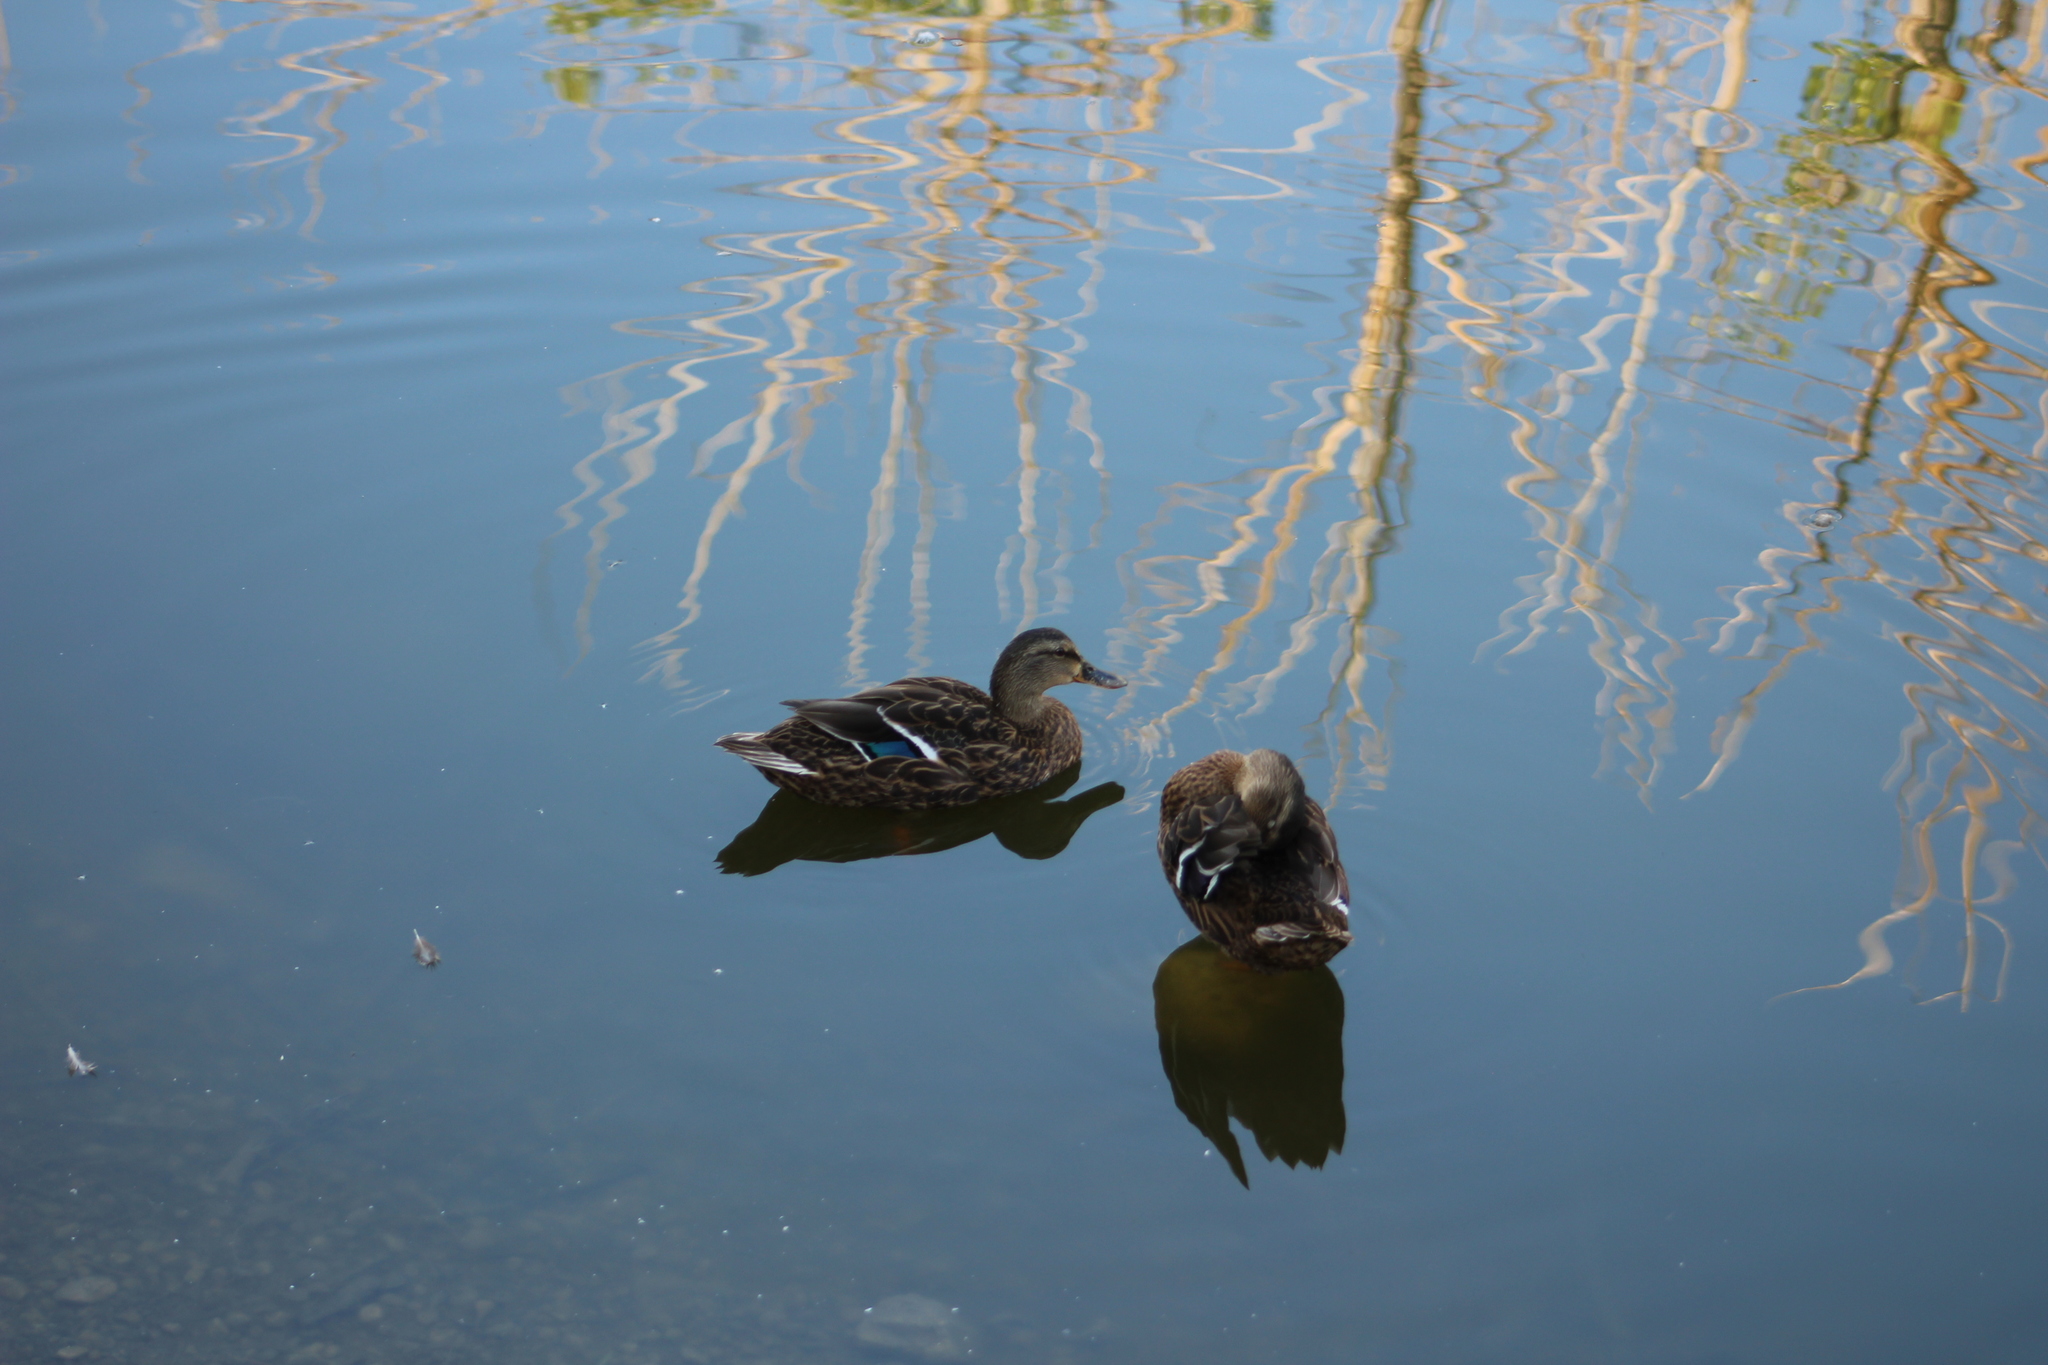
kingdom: Animalia
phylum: Chordata
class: Aves
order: Anseriformes
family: Anatidae
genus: Anas
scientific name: Anas platyrhynchos
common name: Mallard
